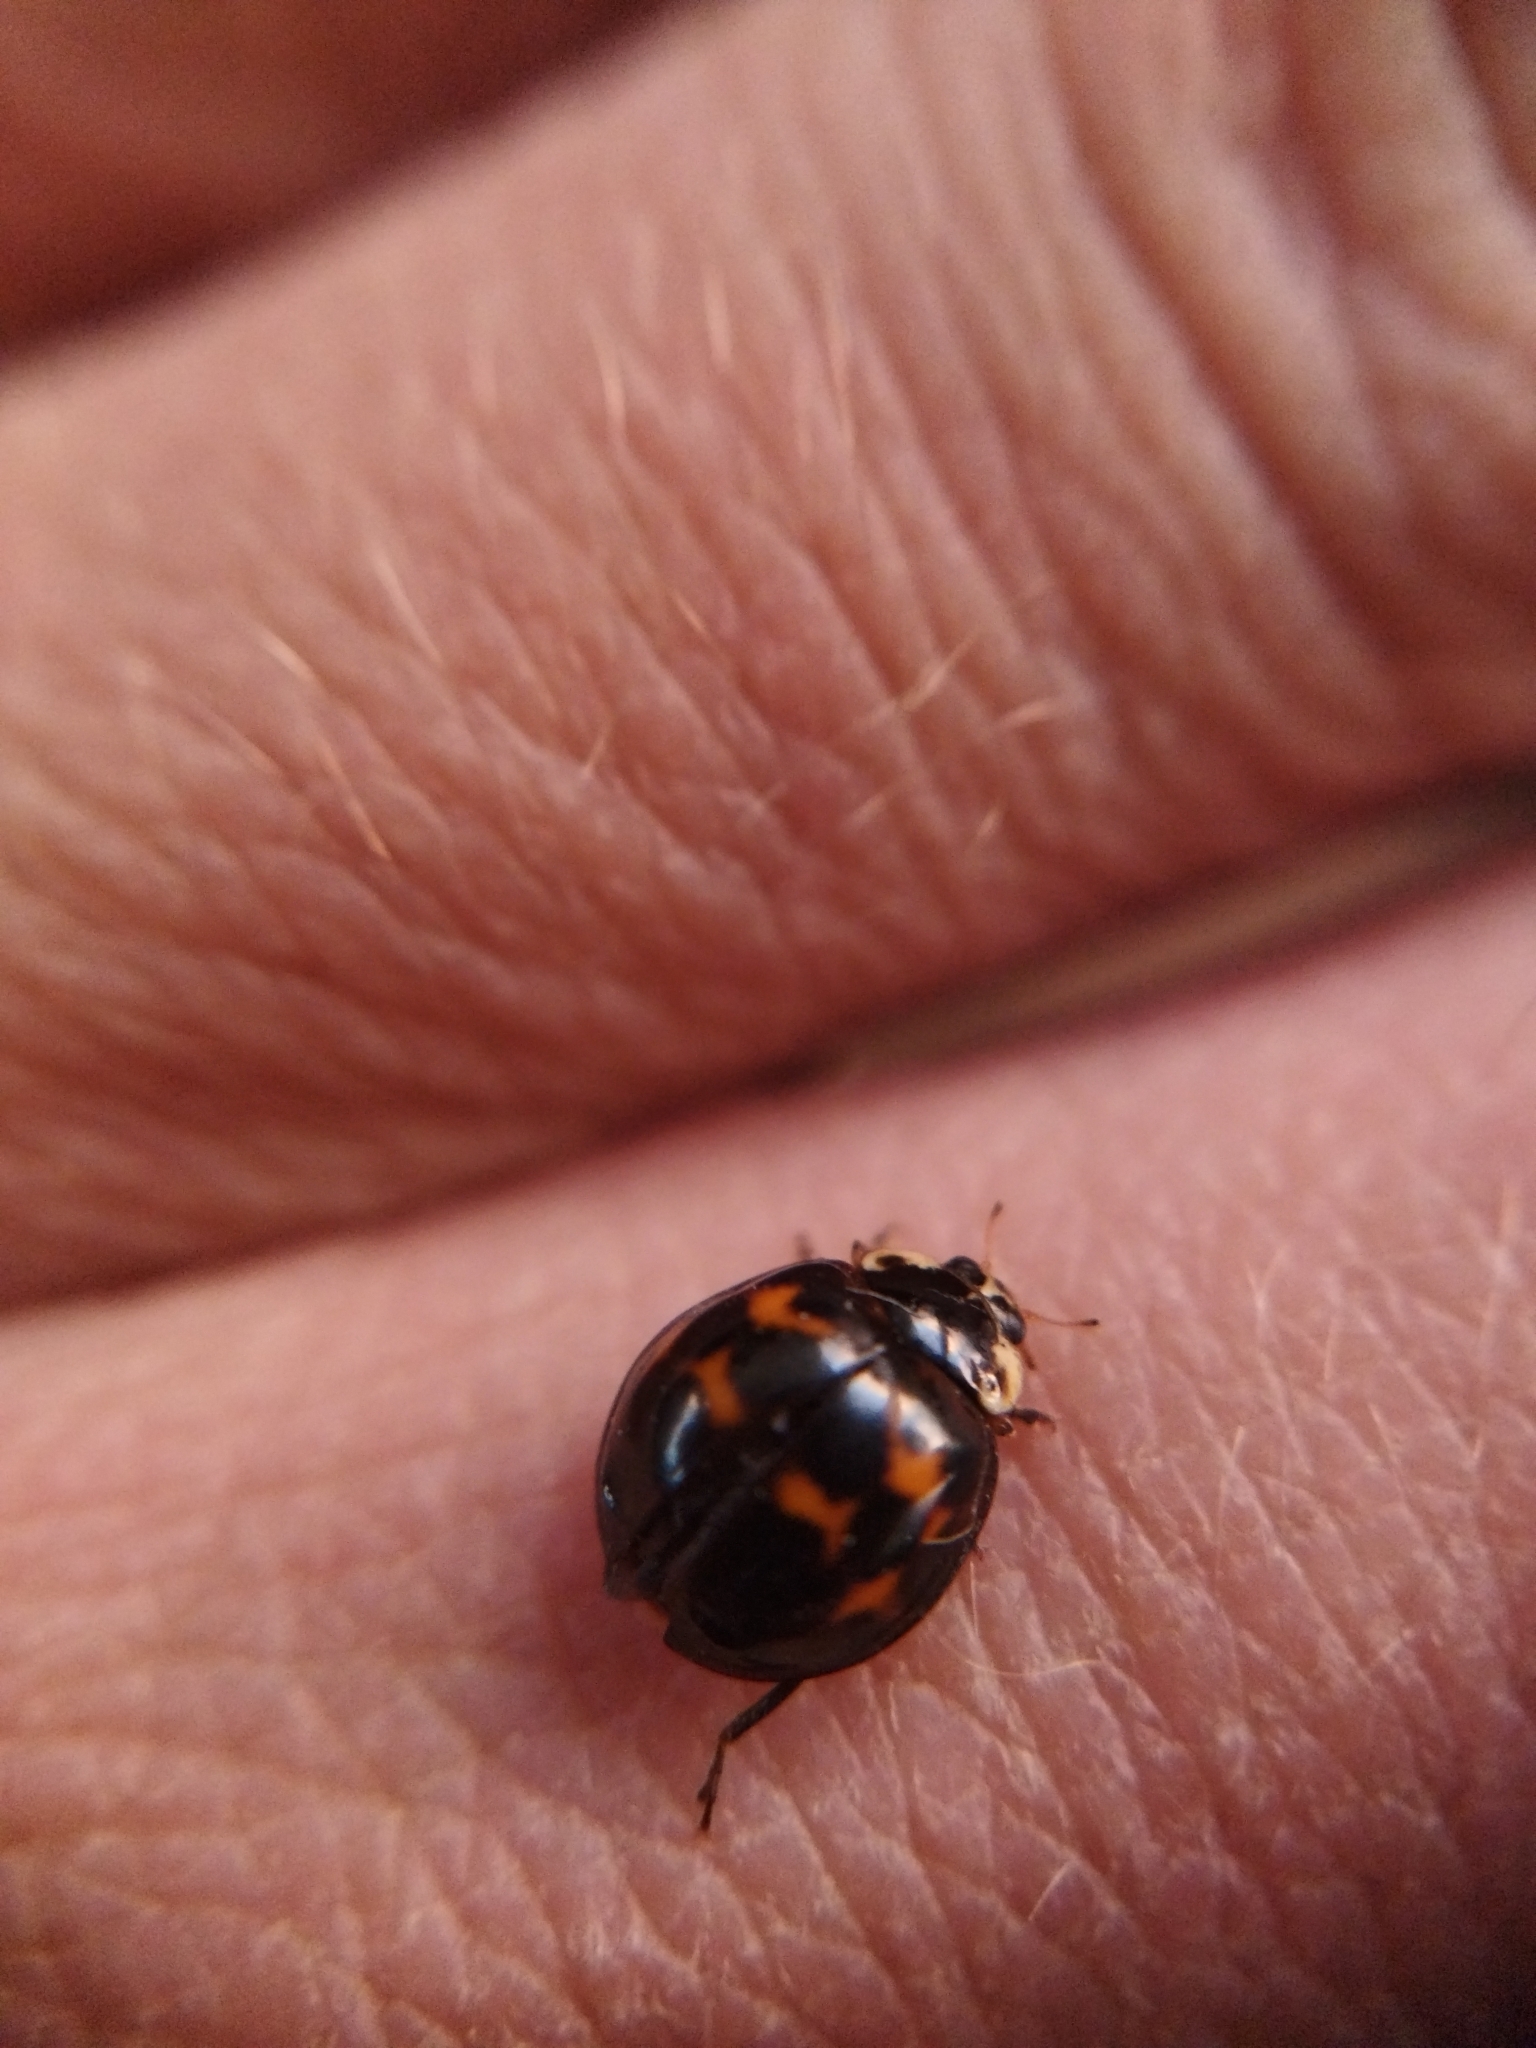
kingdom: Animalia
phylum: Arthropoda
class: Insecta
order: Coleoptera
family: Coccinellidae
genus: Harmonia
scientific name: Harmonia axyridis
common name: Harlequin ladybird
